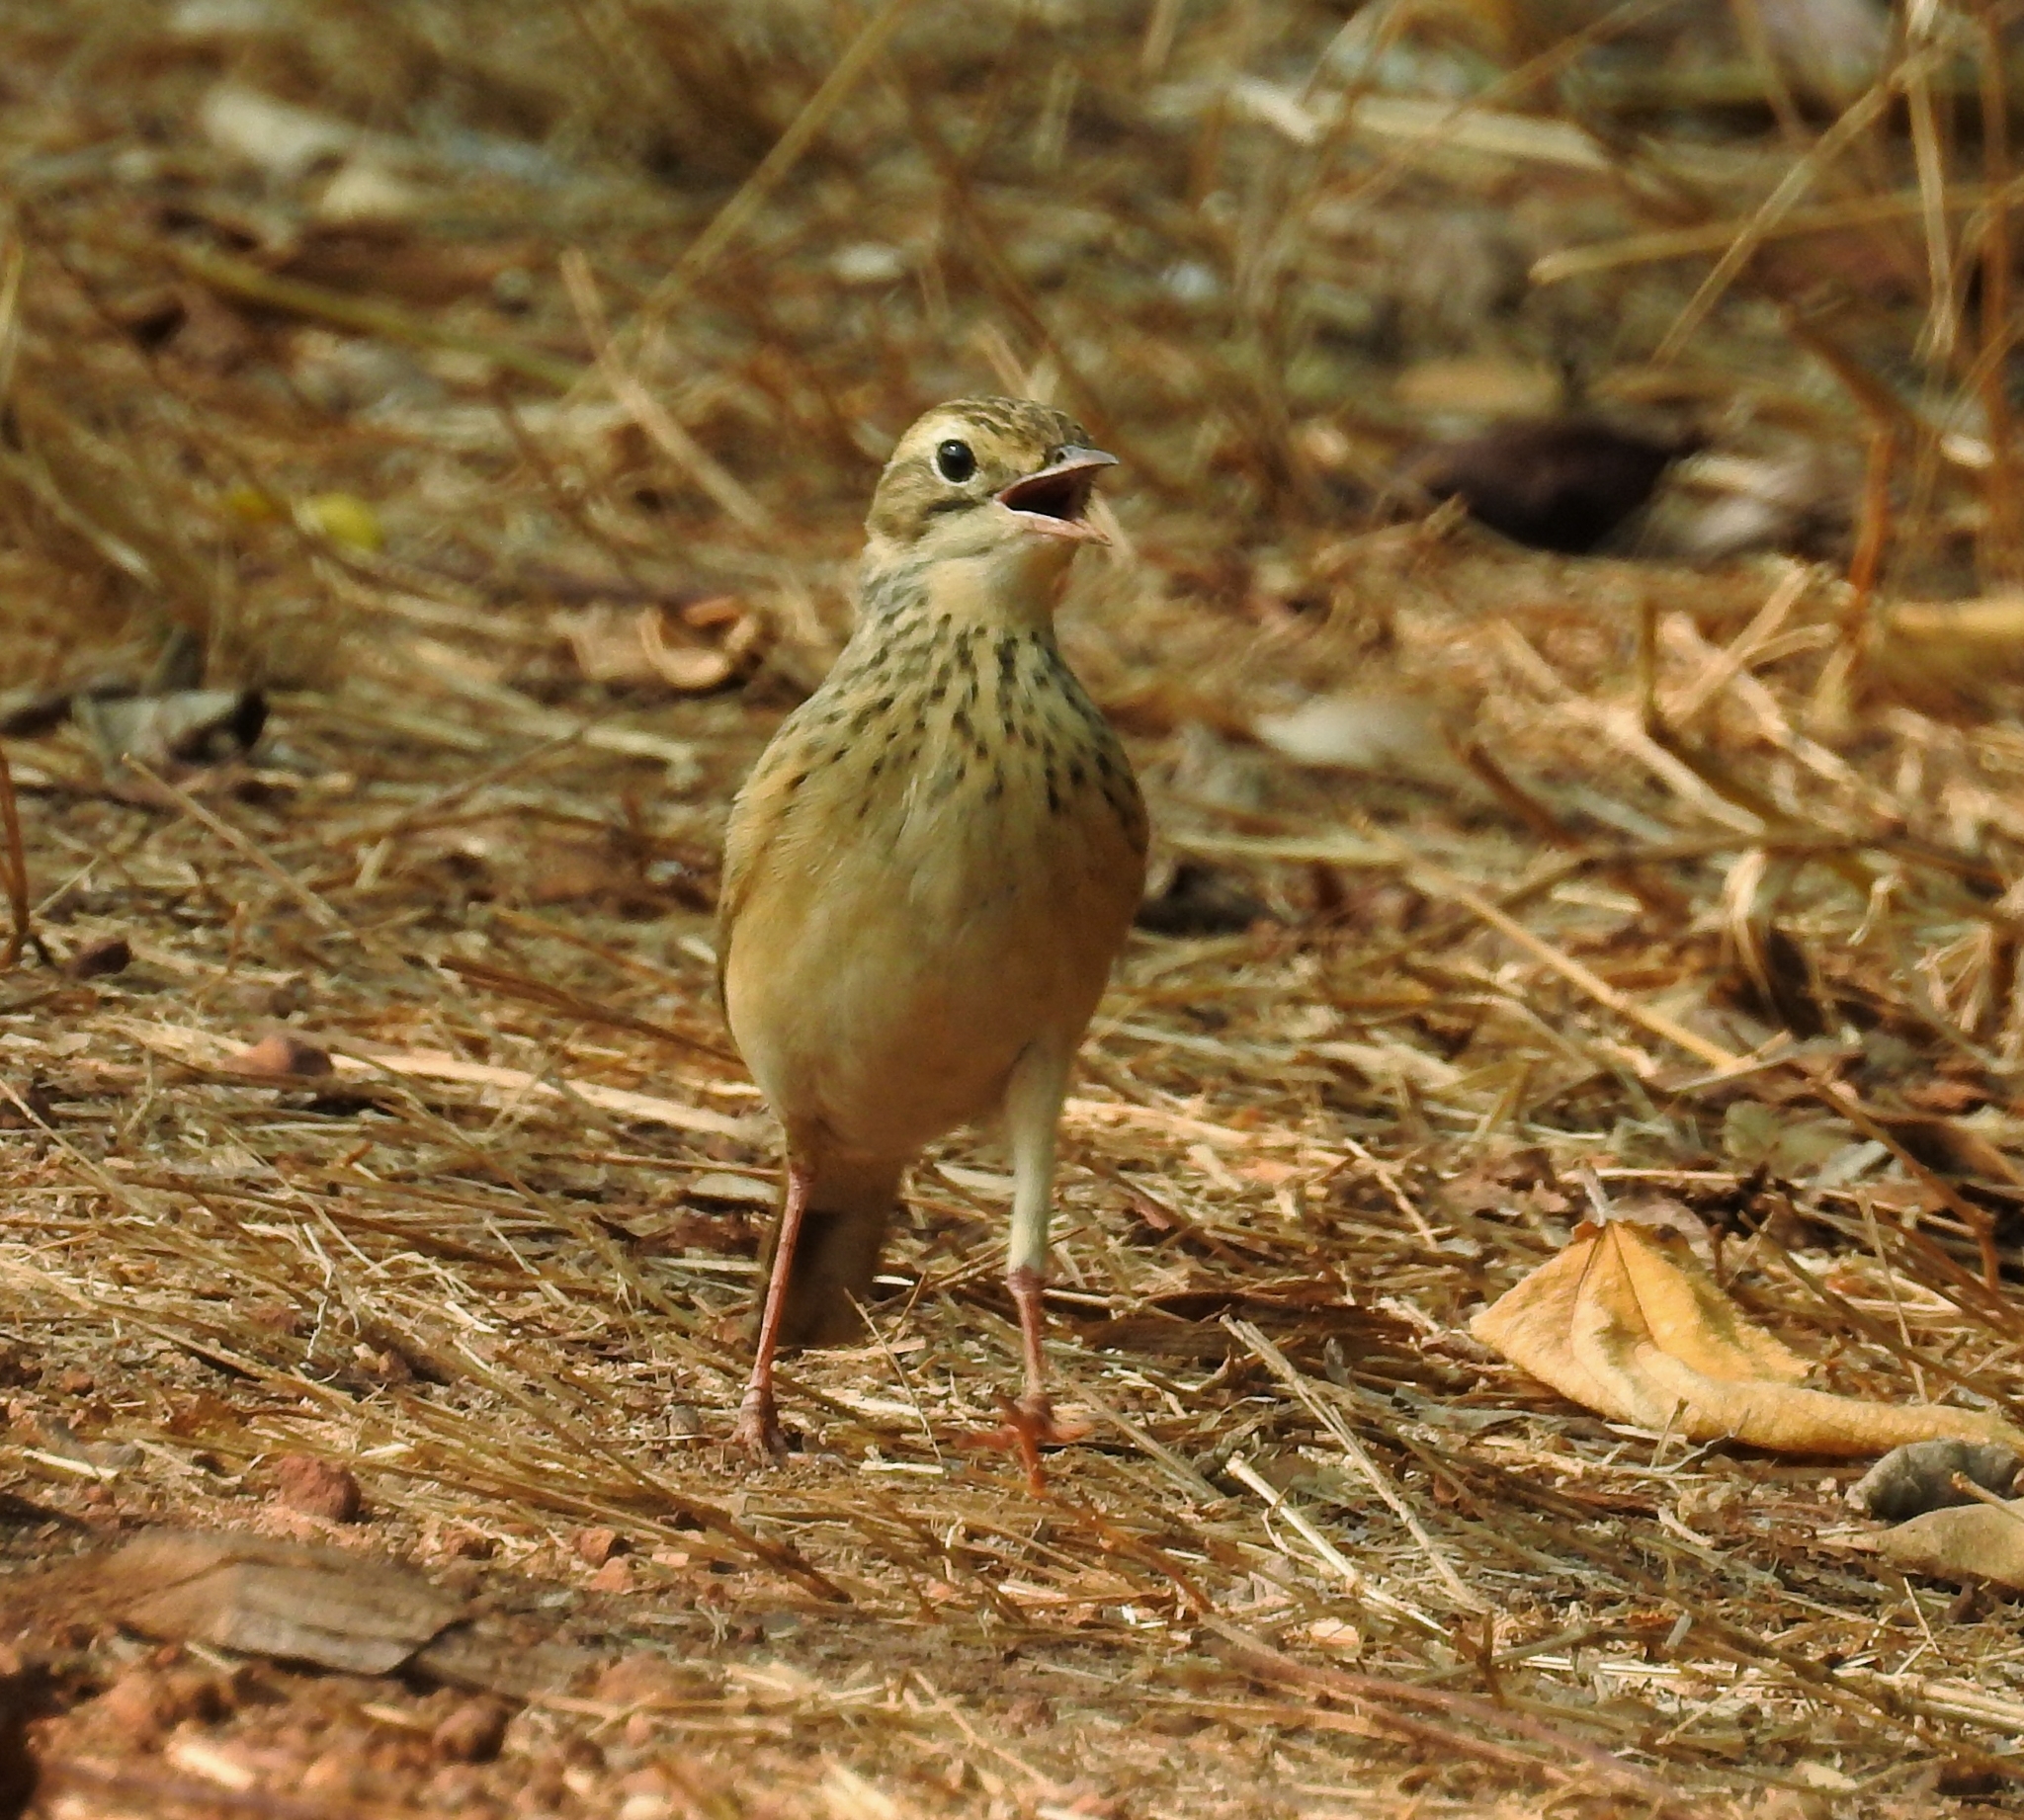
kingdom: Animalia
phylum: Chordata
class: Aves
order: Passeriformes
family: Motacillidae
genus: Anthus
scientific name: Anthus godlewskii
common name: Blyth's pipit
